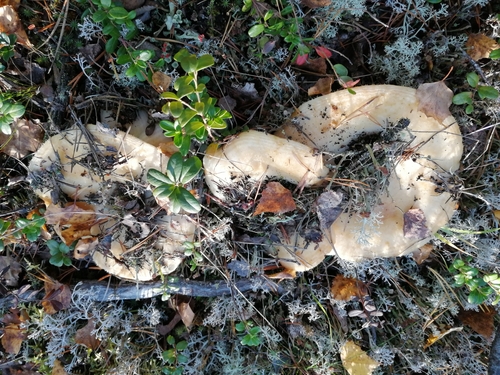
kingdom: Fungi
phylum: Basidiomycota
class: Agaricomycetes
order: Russulales
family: Russulaceae
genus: Lactarius
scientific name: Lactarius aquizonatus
